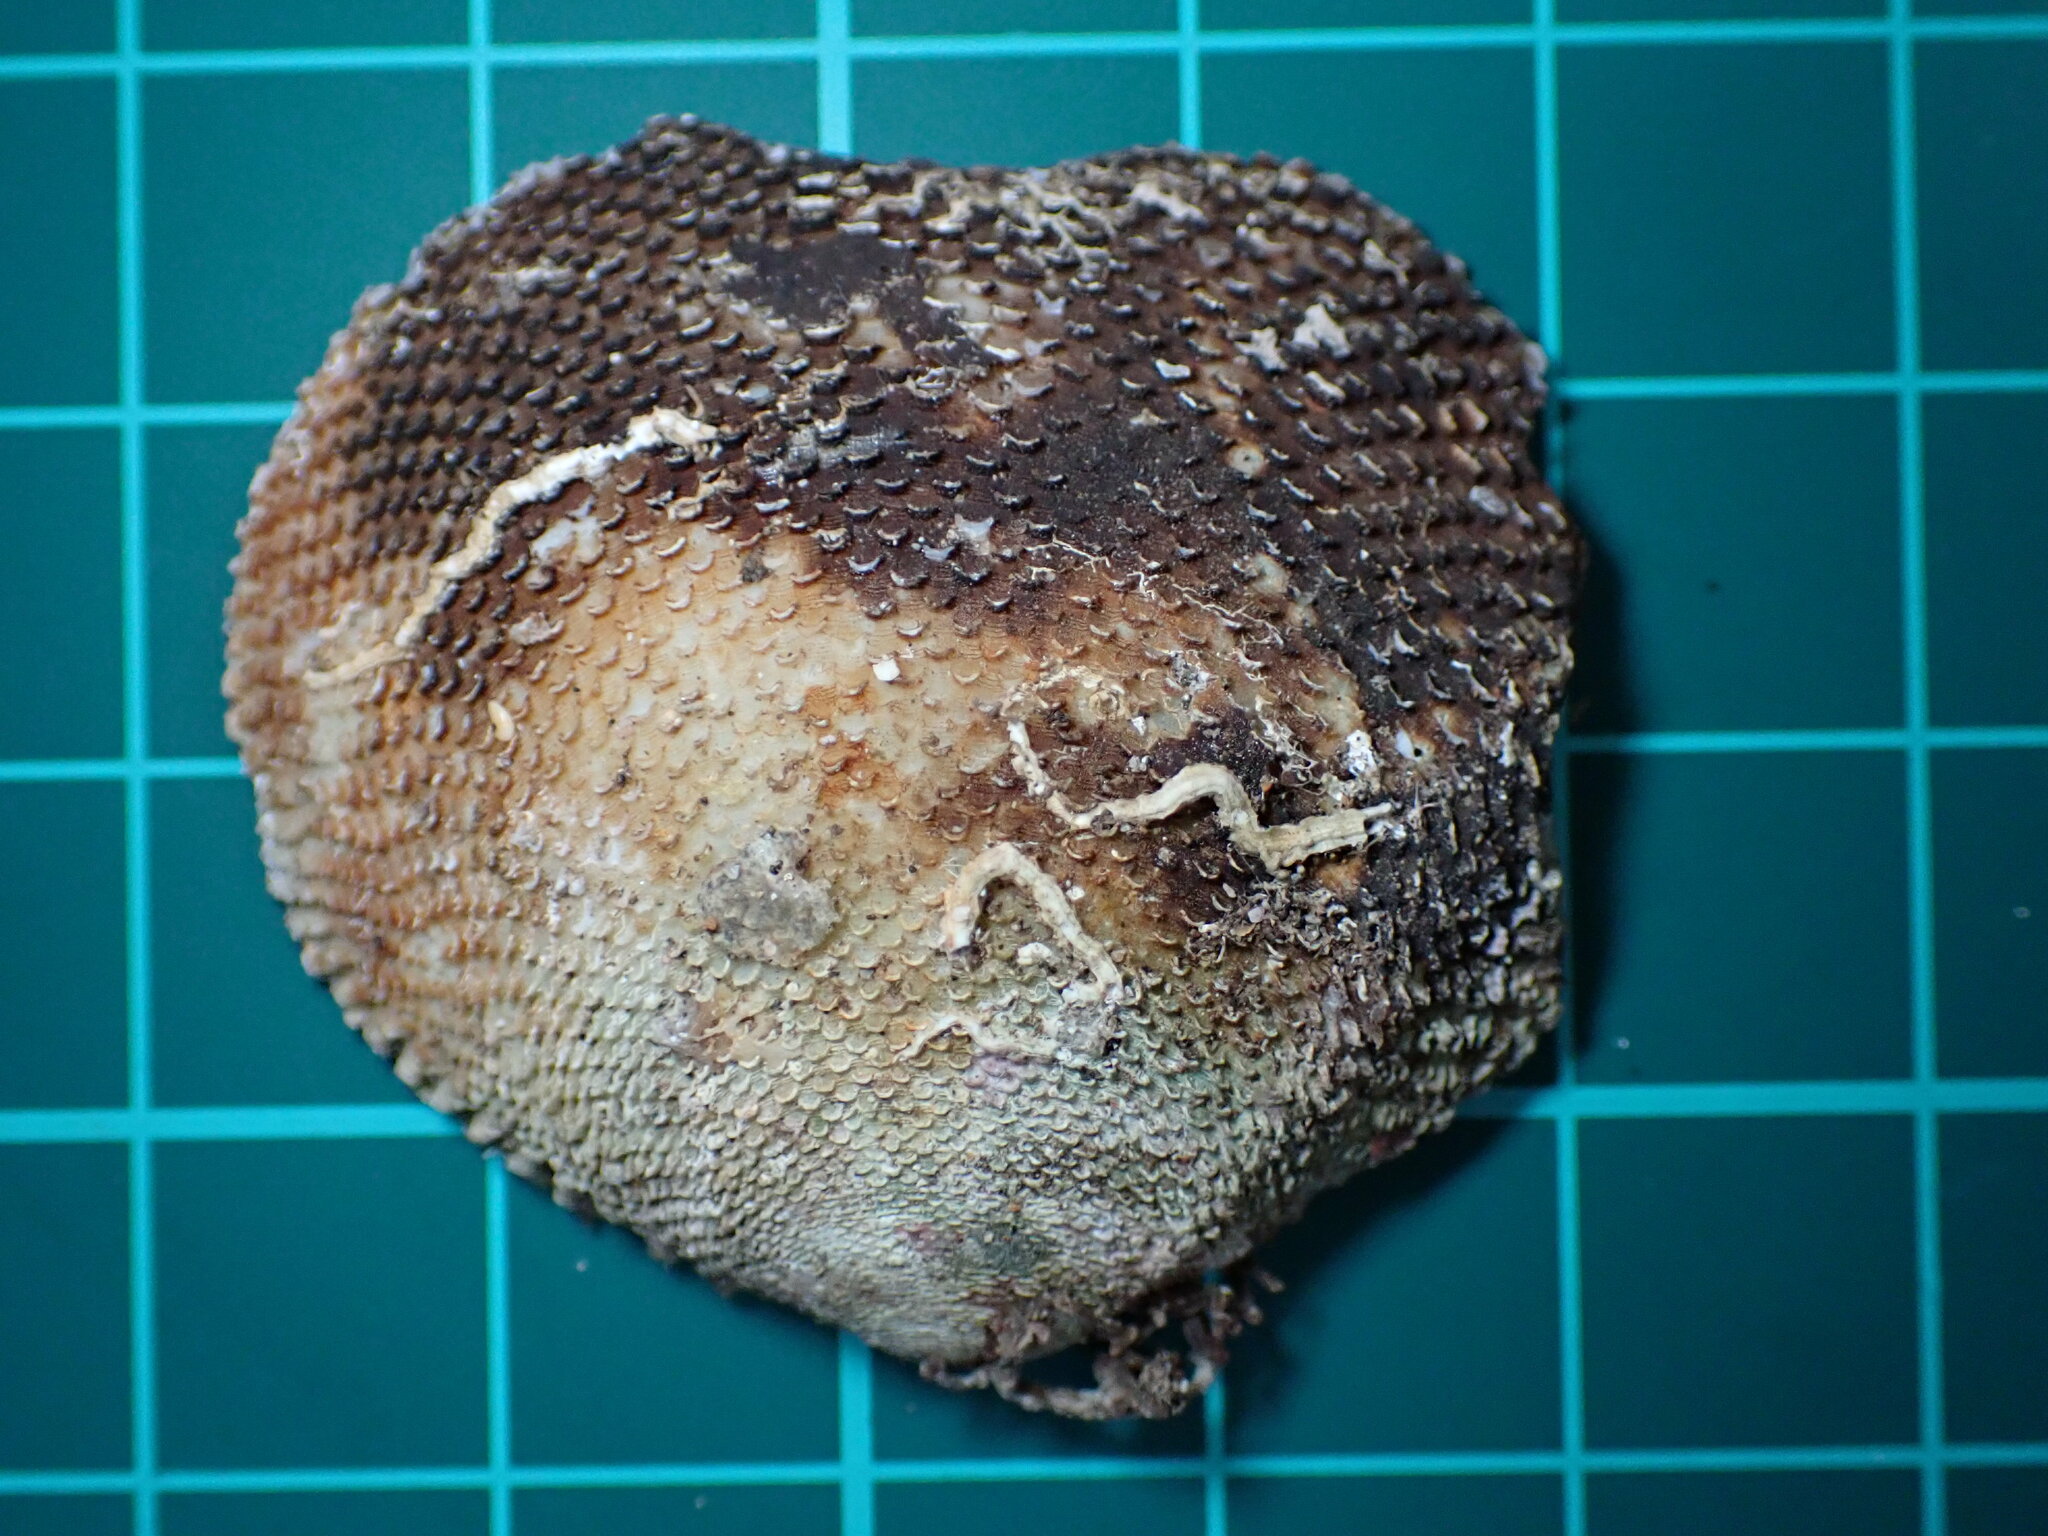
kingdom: Animalia
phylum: Mollusca
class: Bivalvia
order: Cardiida
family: Tellinidae
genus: Scutarcopagia
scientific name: Scutarcopagia scobinata
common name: Rasp tellin
